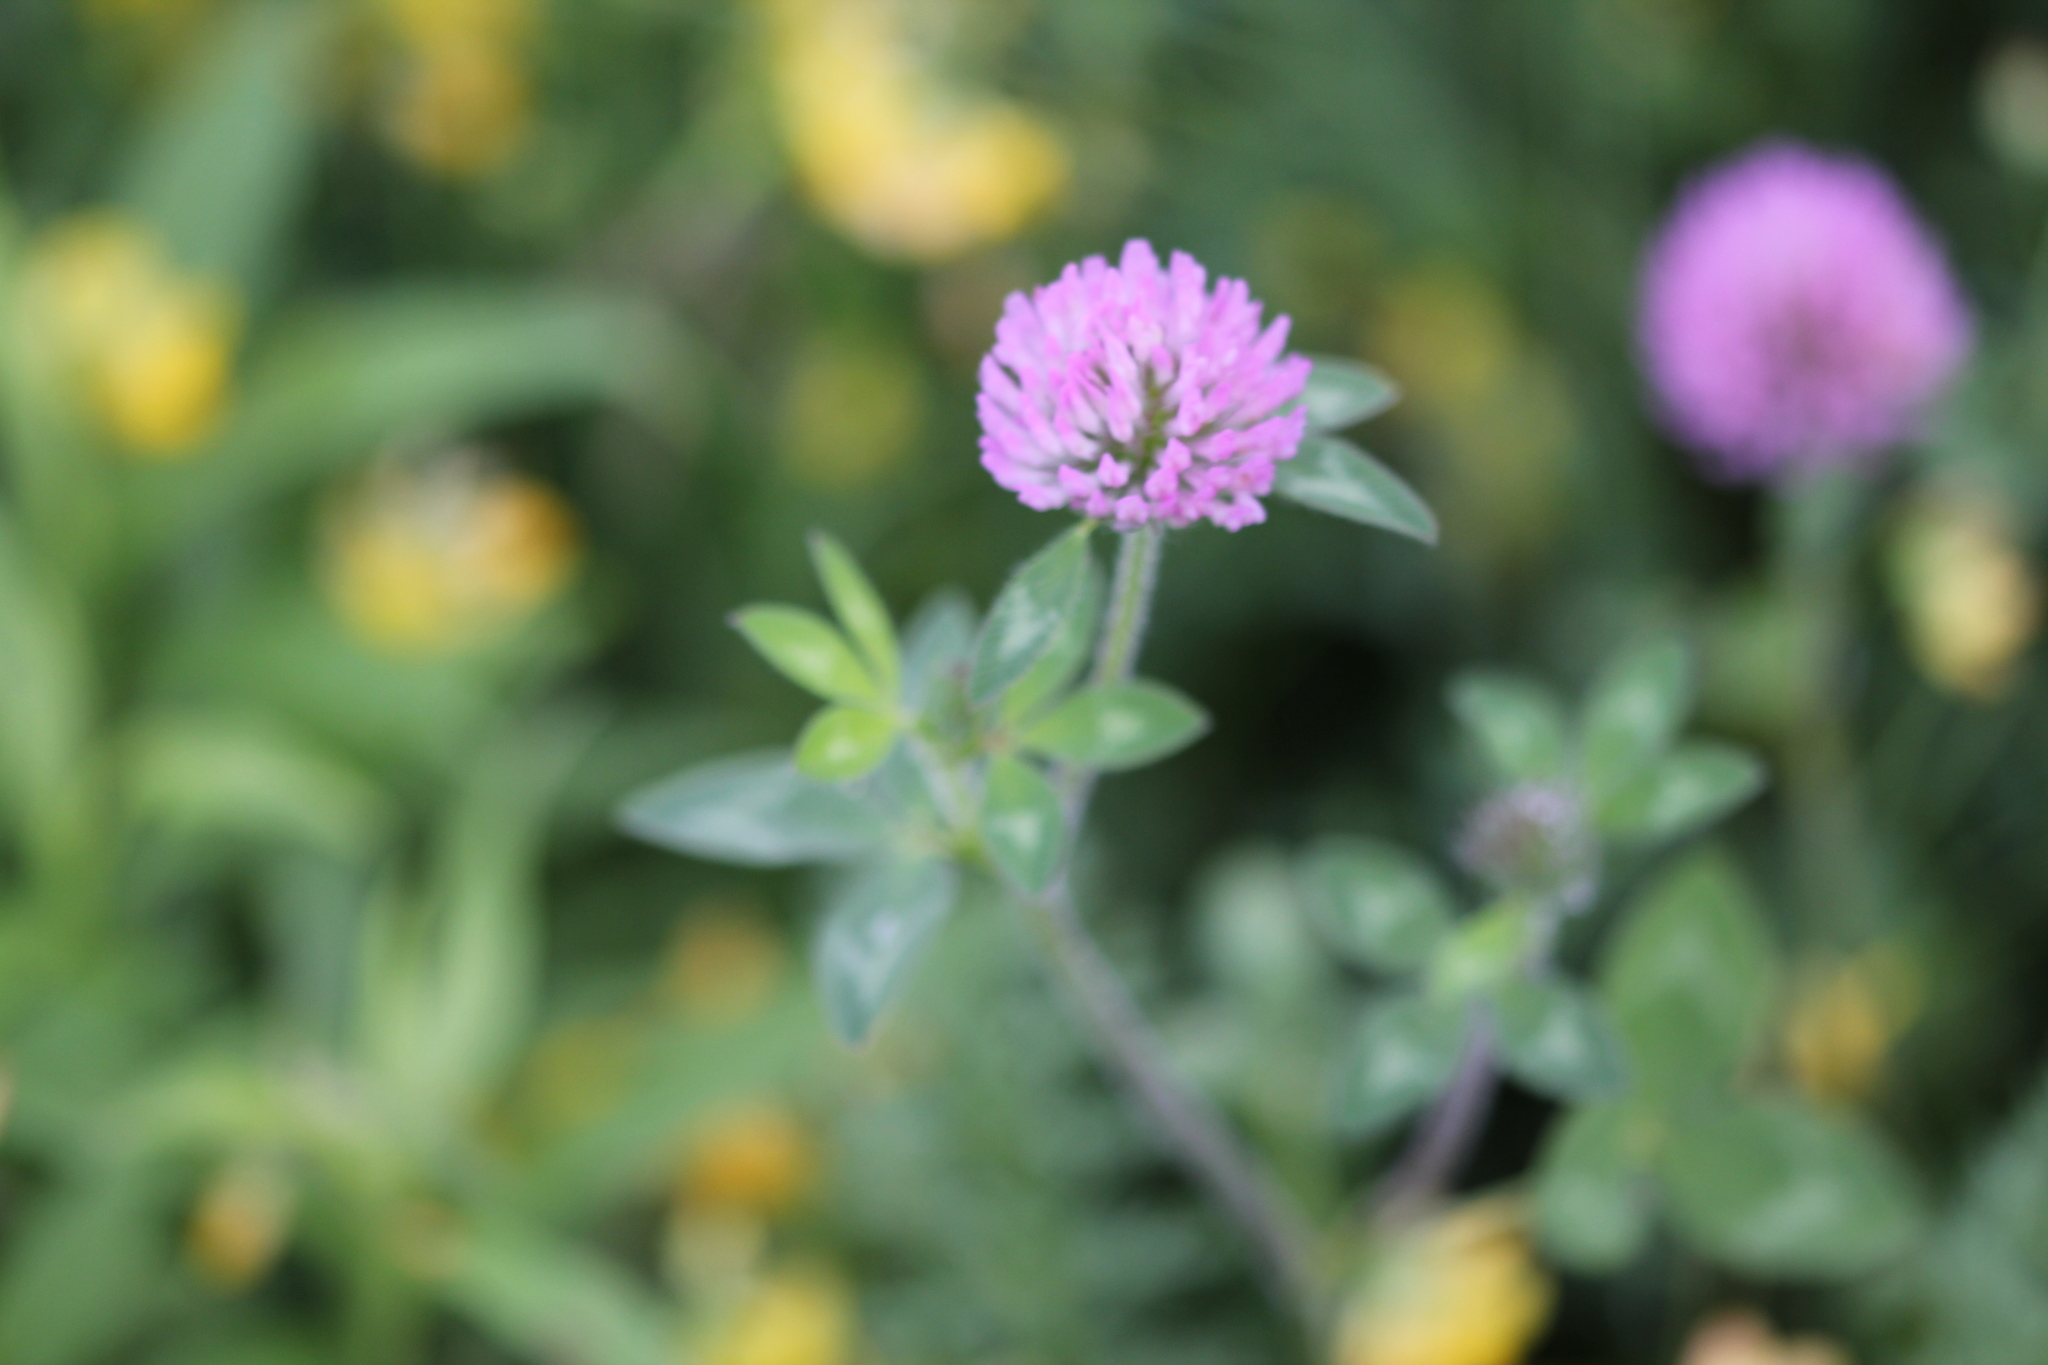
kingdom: Plantae
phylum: Tracheophyta
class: Magnoliopsida
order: Fabales
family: Fabaceae
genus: Trifolium
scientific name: Trifolium pratense
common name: Red clover
